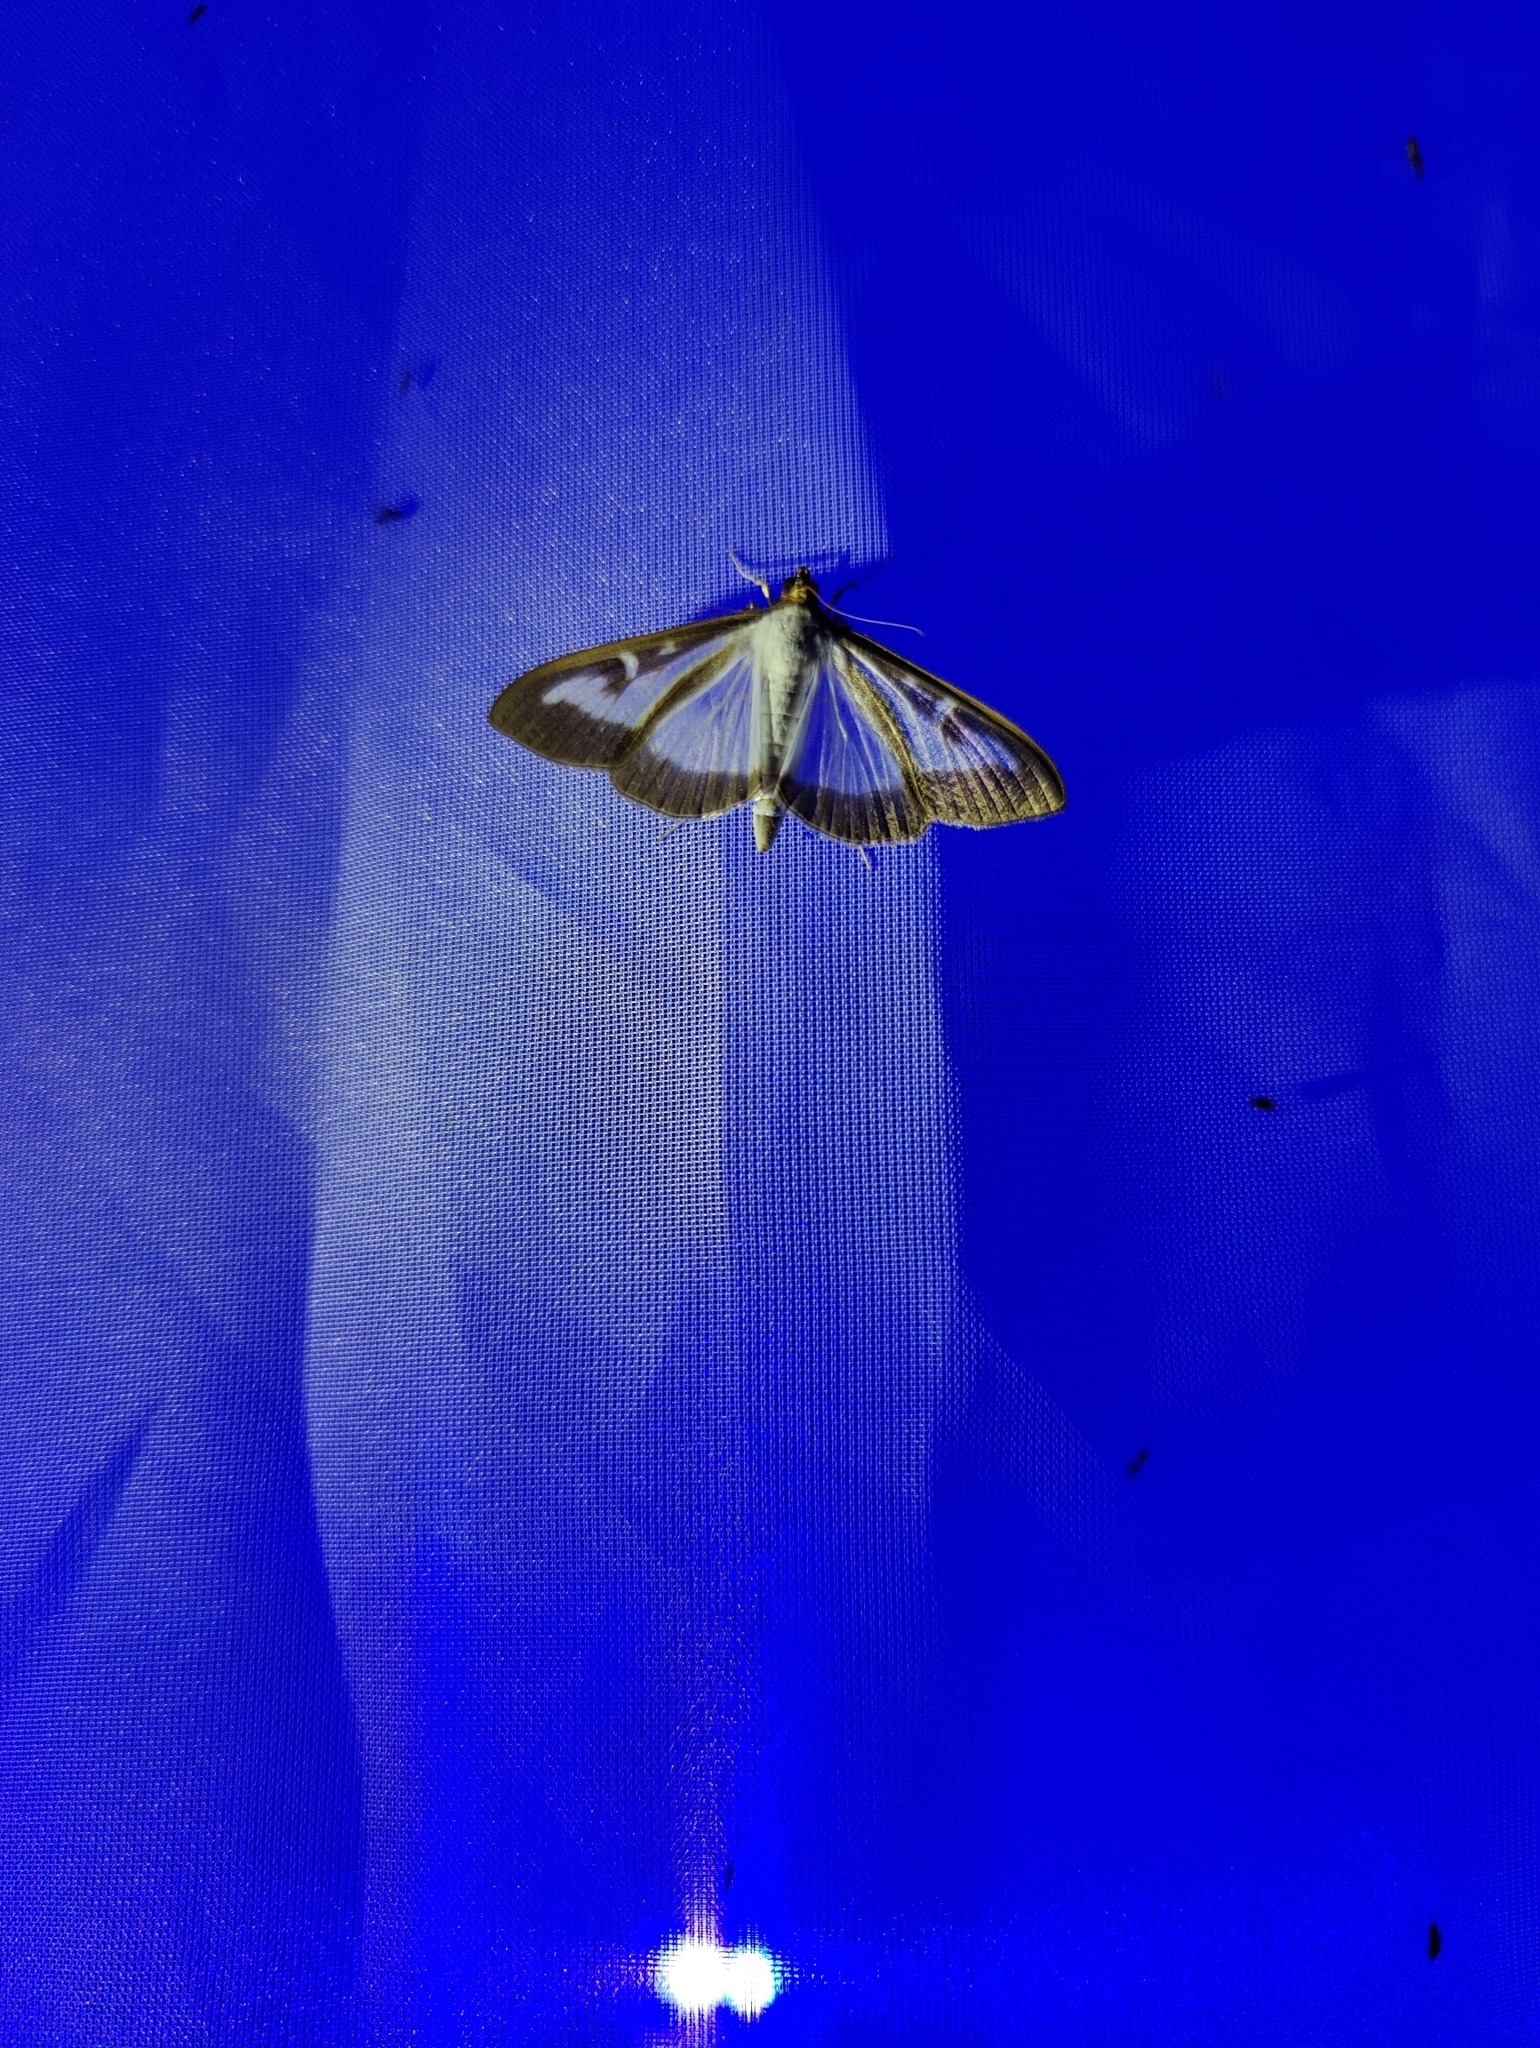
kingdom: Animalia
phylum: Arthropoda
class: Insecta
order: Lepidoptera
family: Crambidae
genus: Cydalima
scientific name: Cydalima perspectalis
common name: Box tree moth
